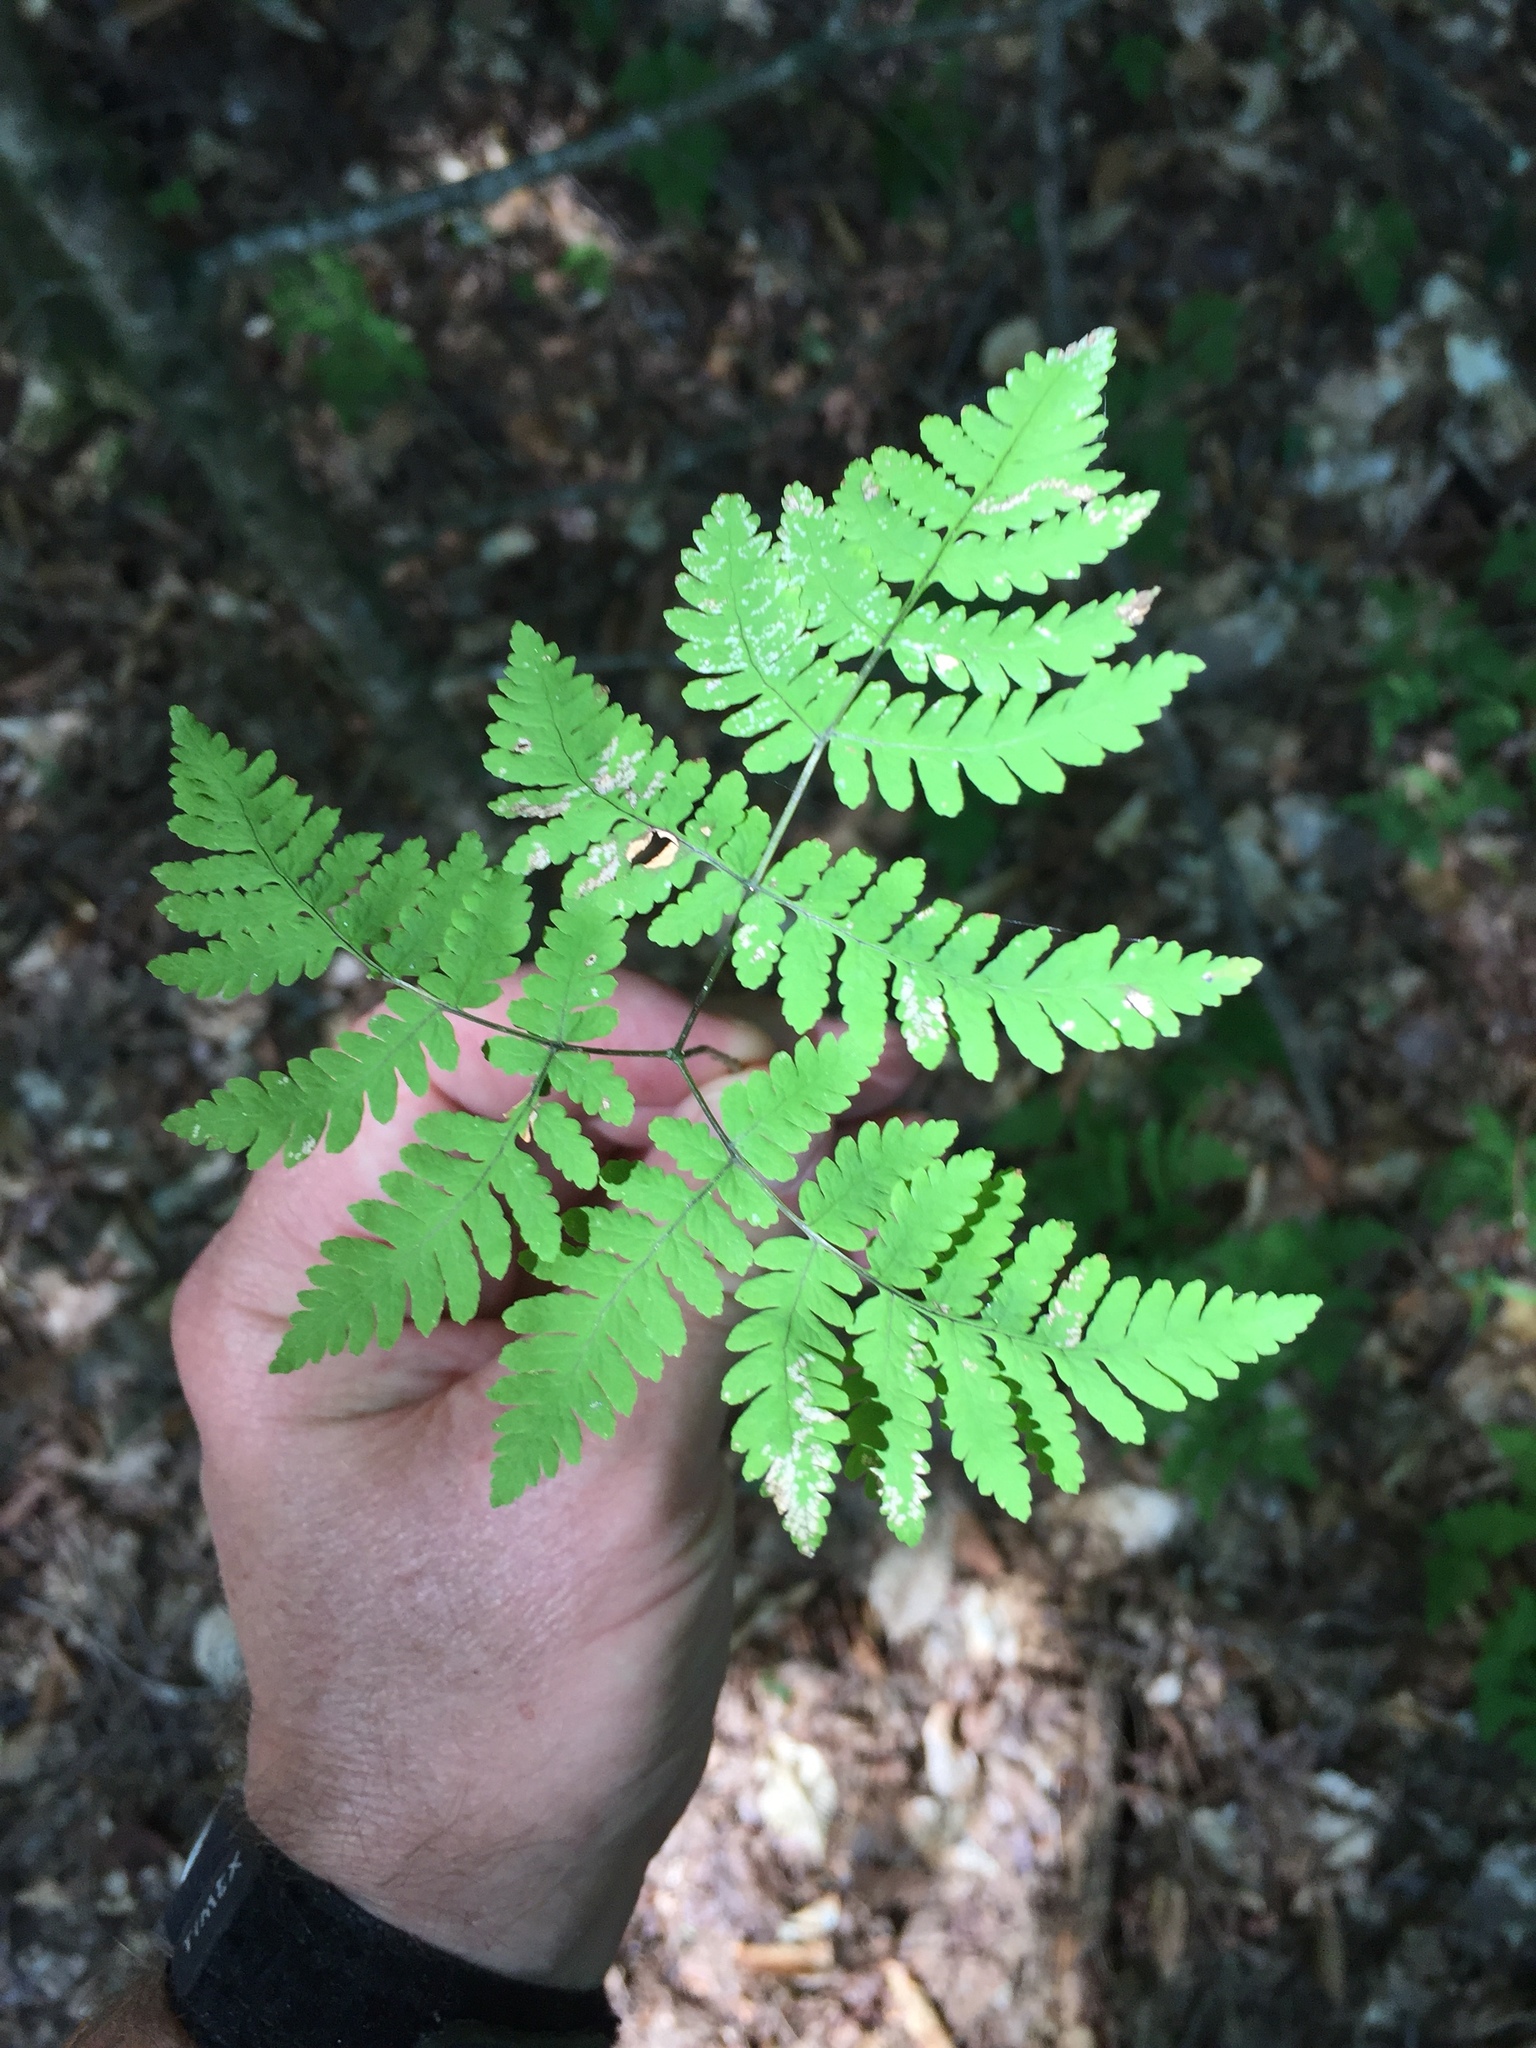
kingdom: Plantae
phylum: Tracheophyta
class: Polypodiopsida
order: Polypodiales
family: Cystopteridaceae
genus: Gymnocarpium
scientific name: Gymnocarpium dryopteris
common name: Oak fern
